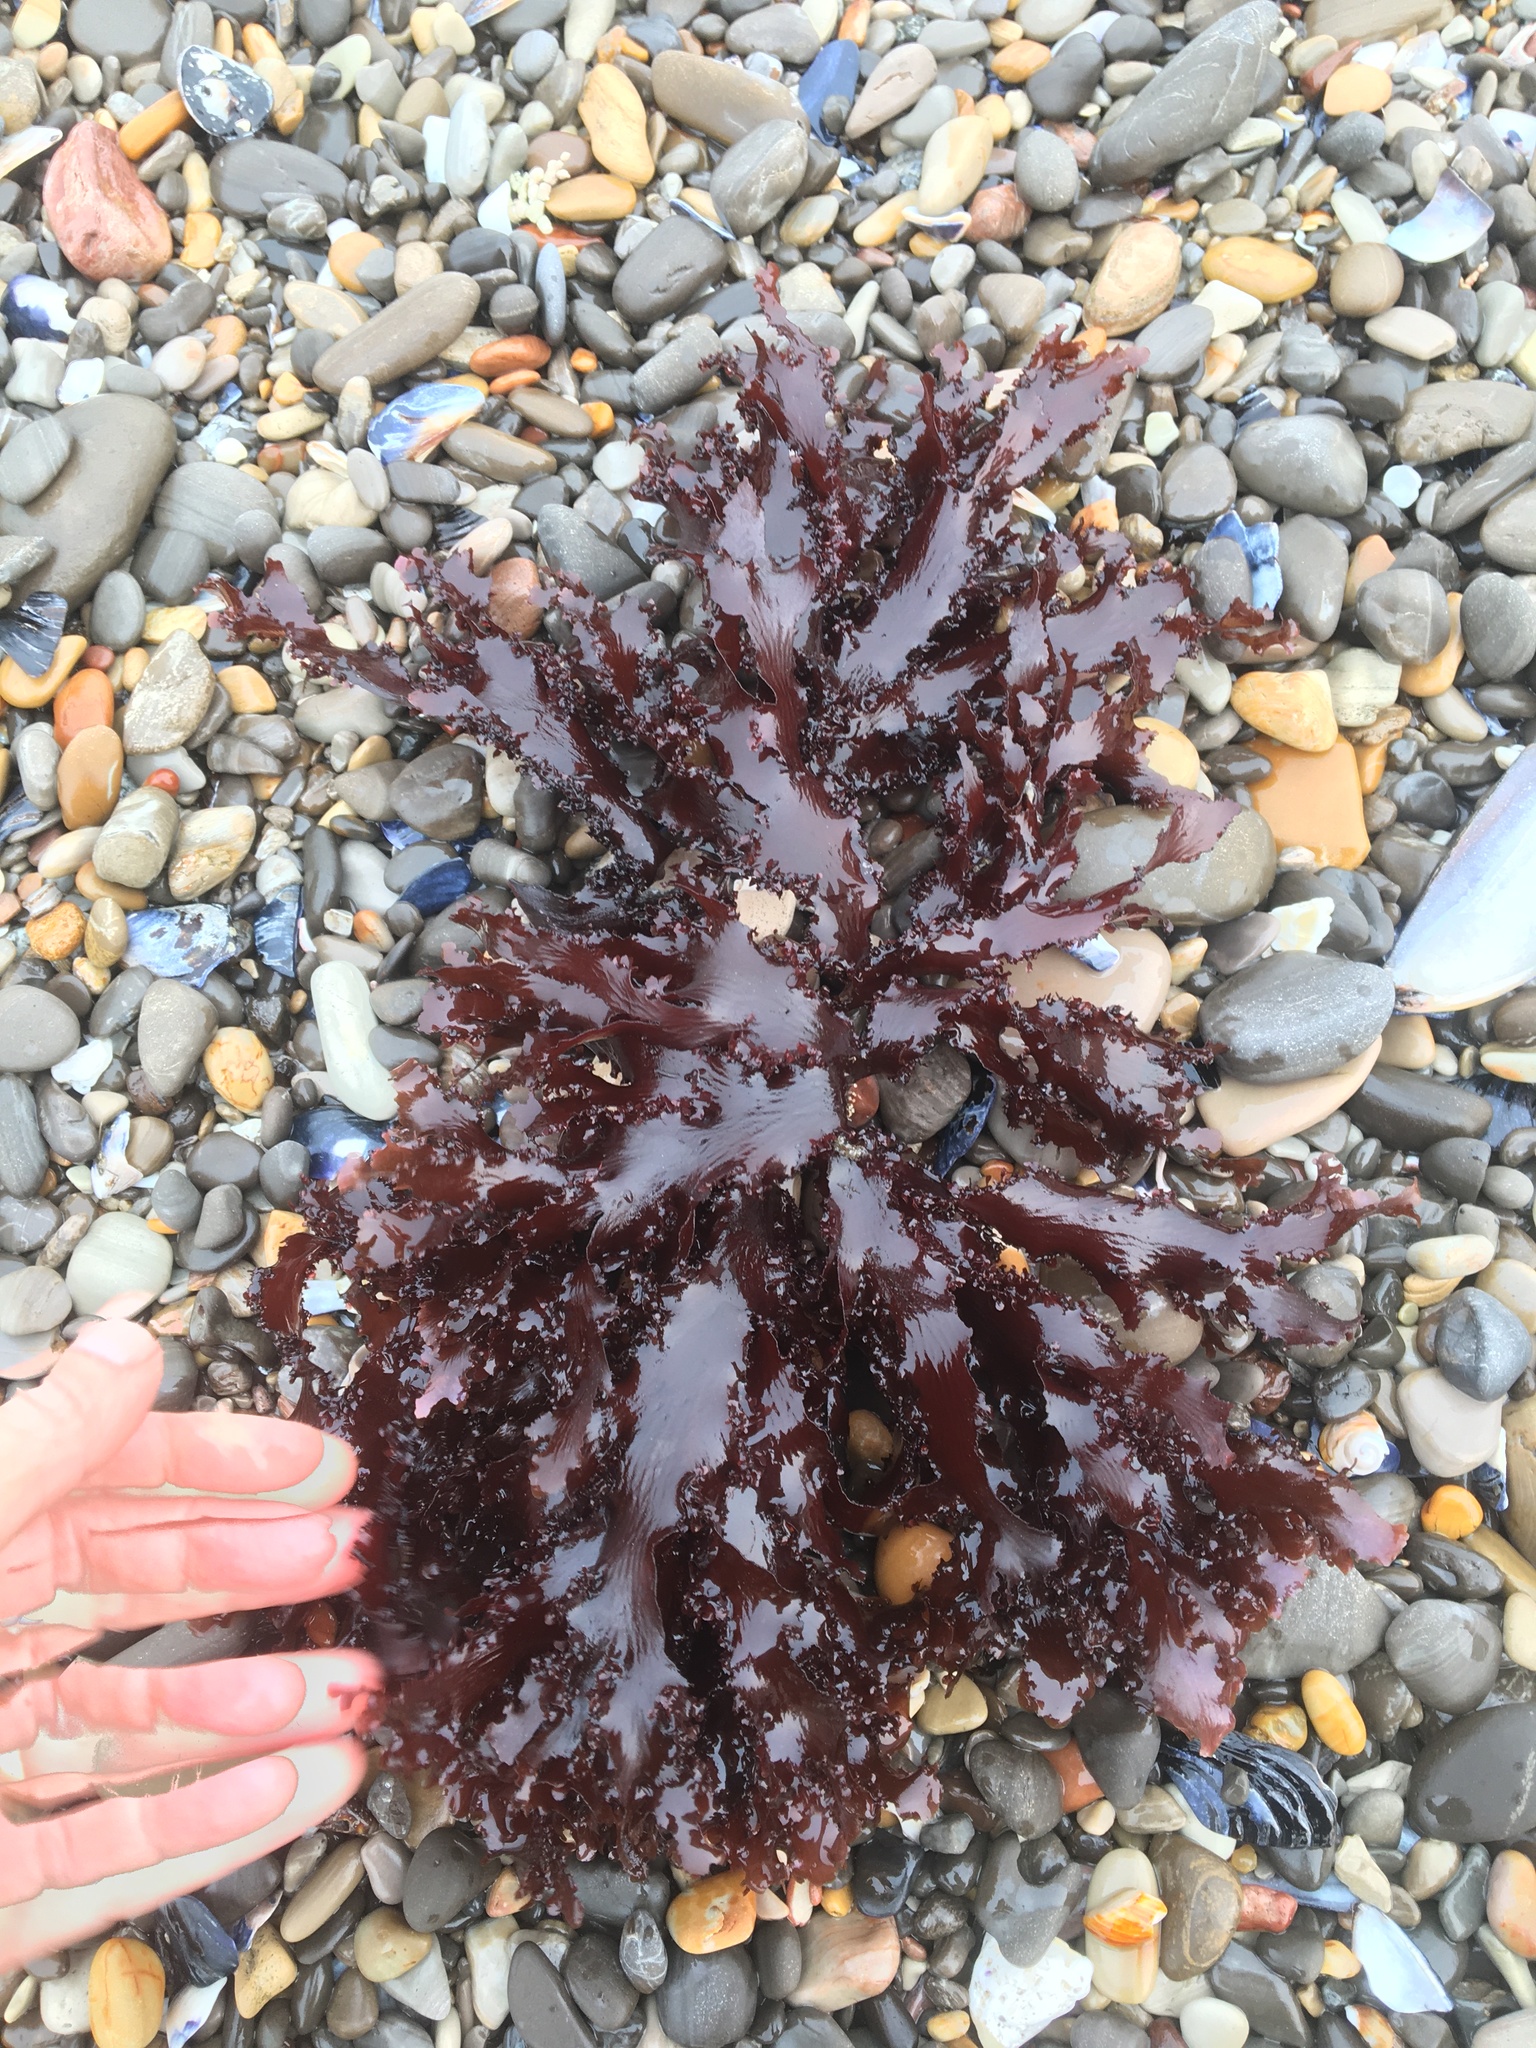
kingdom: Plantae
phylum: Rhodophyta
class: Florideophyceae
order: Ceramiales
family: Delesseriaceae
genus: Cryptopleura
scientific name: Cryptopleura ruprechtiana
